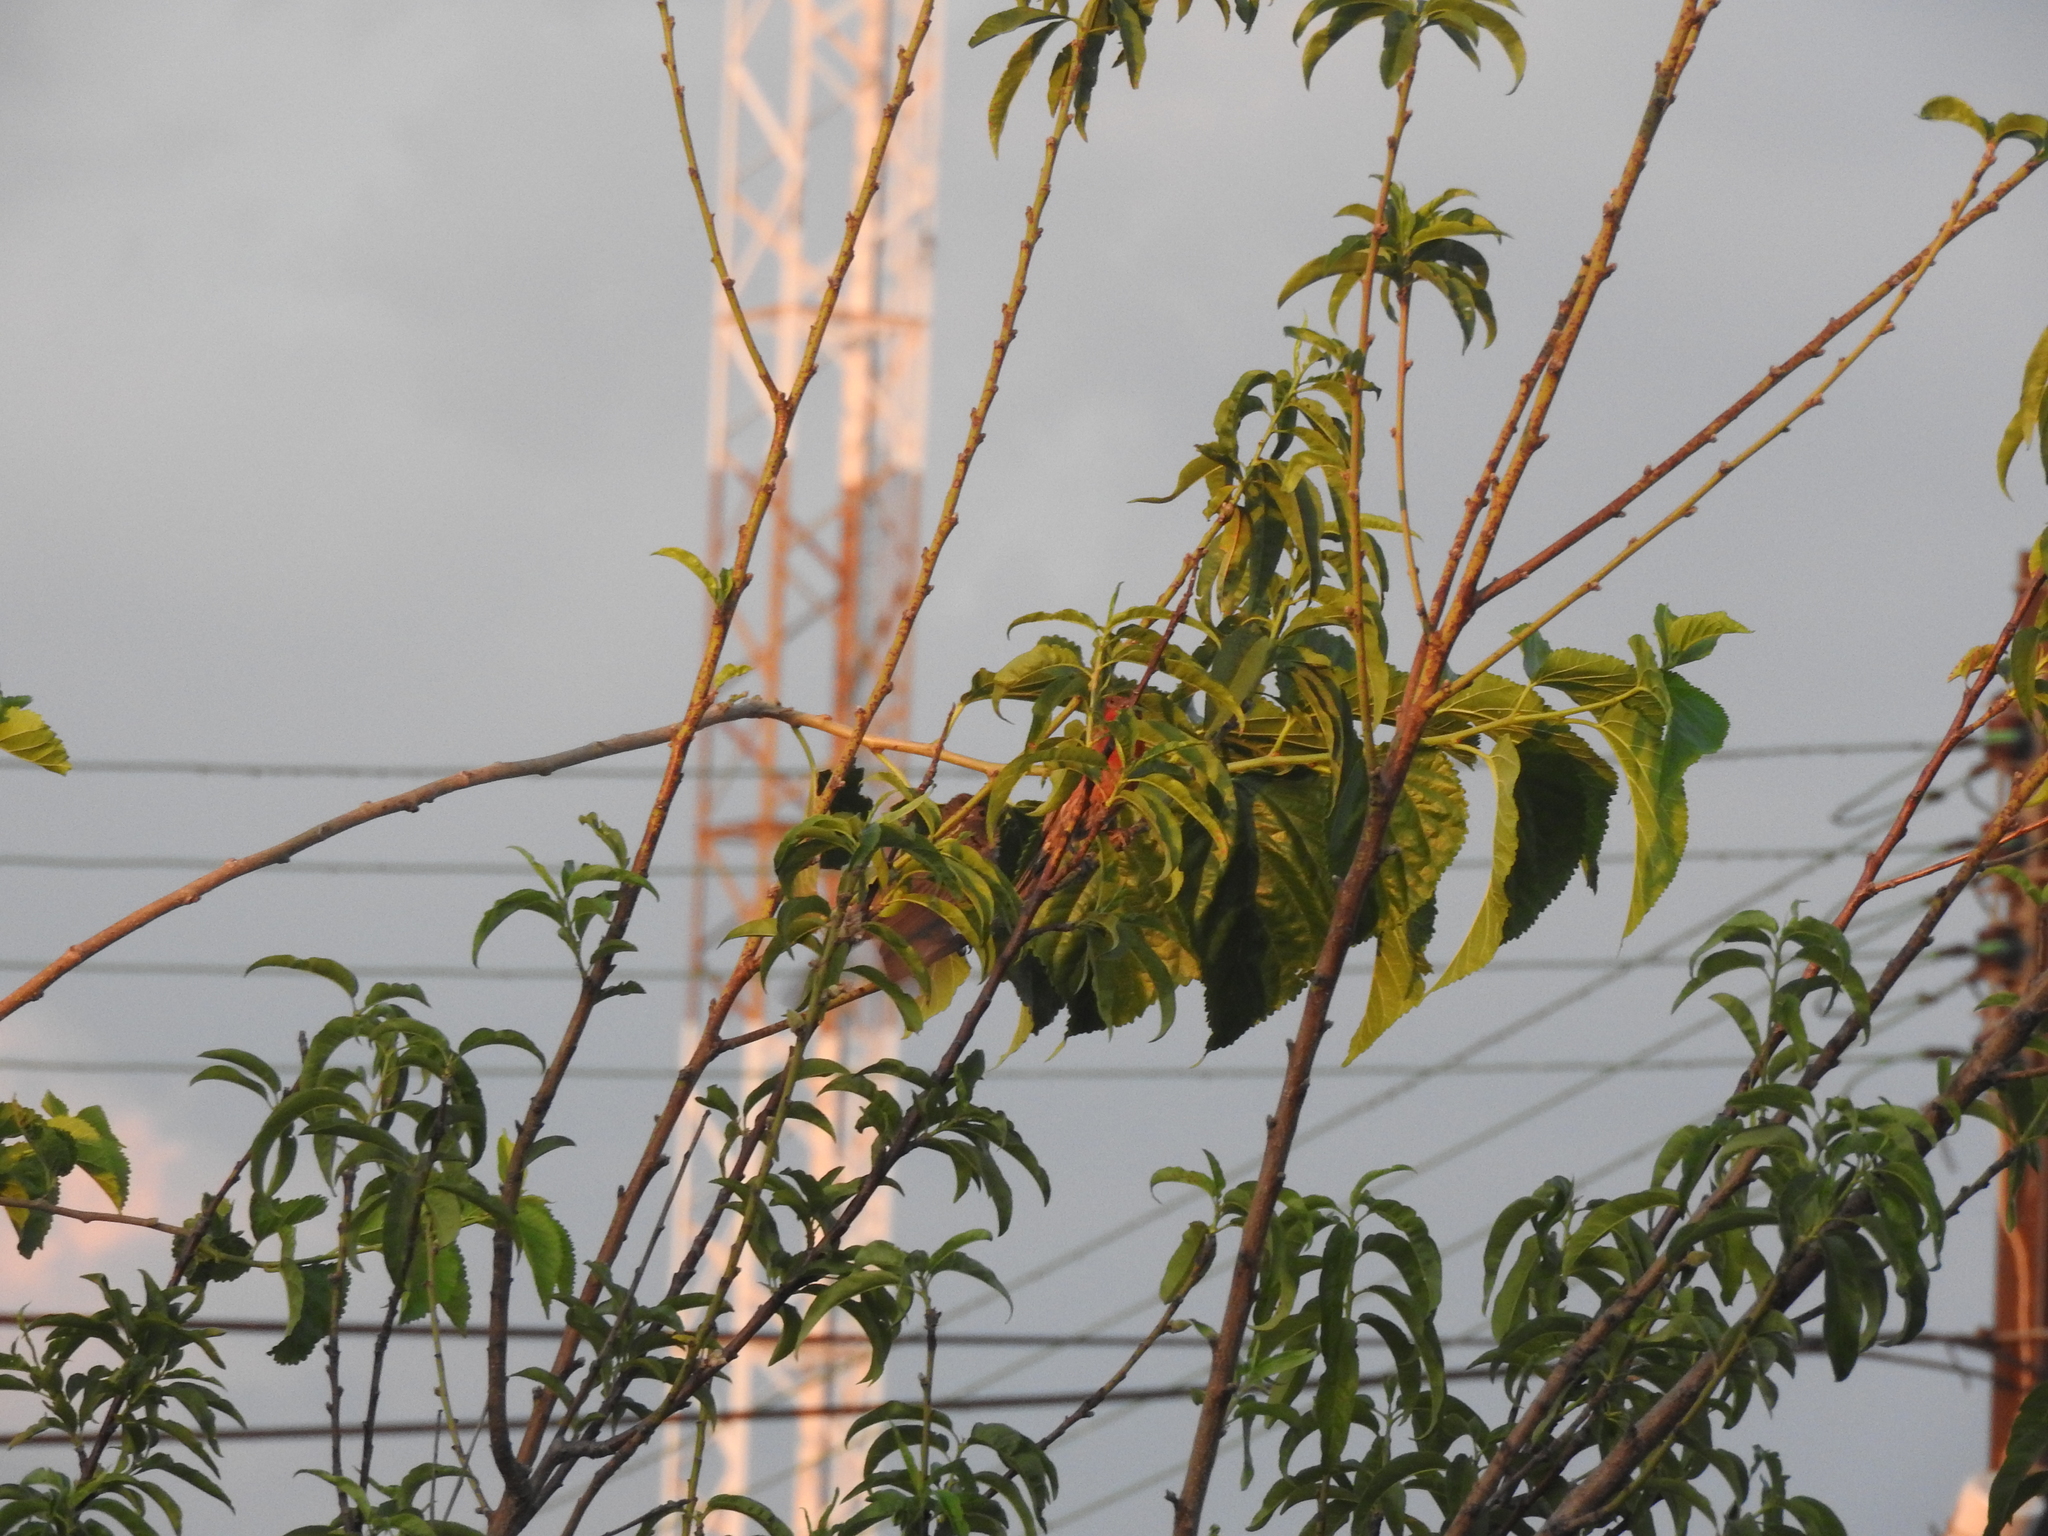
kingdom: Animalia
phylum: Chordata
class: Aves
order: Passeriformes
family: Fringillidae
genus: Haemorhous
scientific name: Haemorhous mexicanus
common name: House finch
